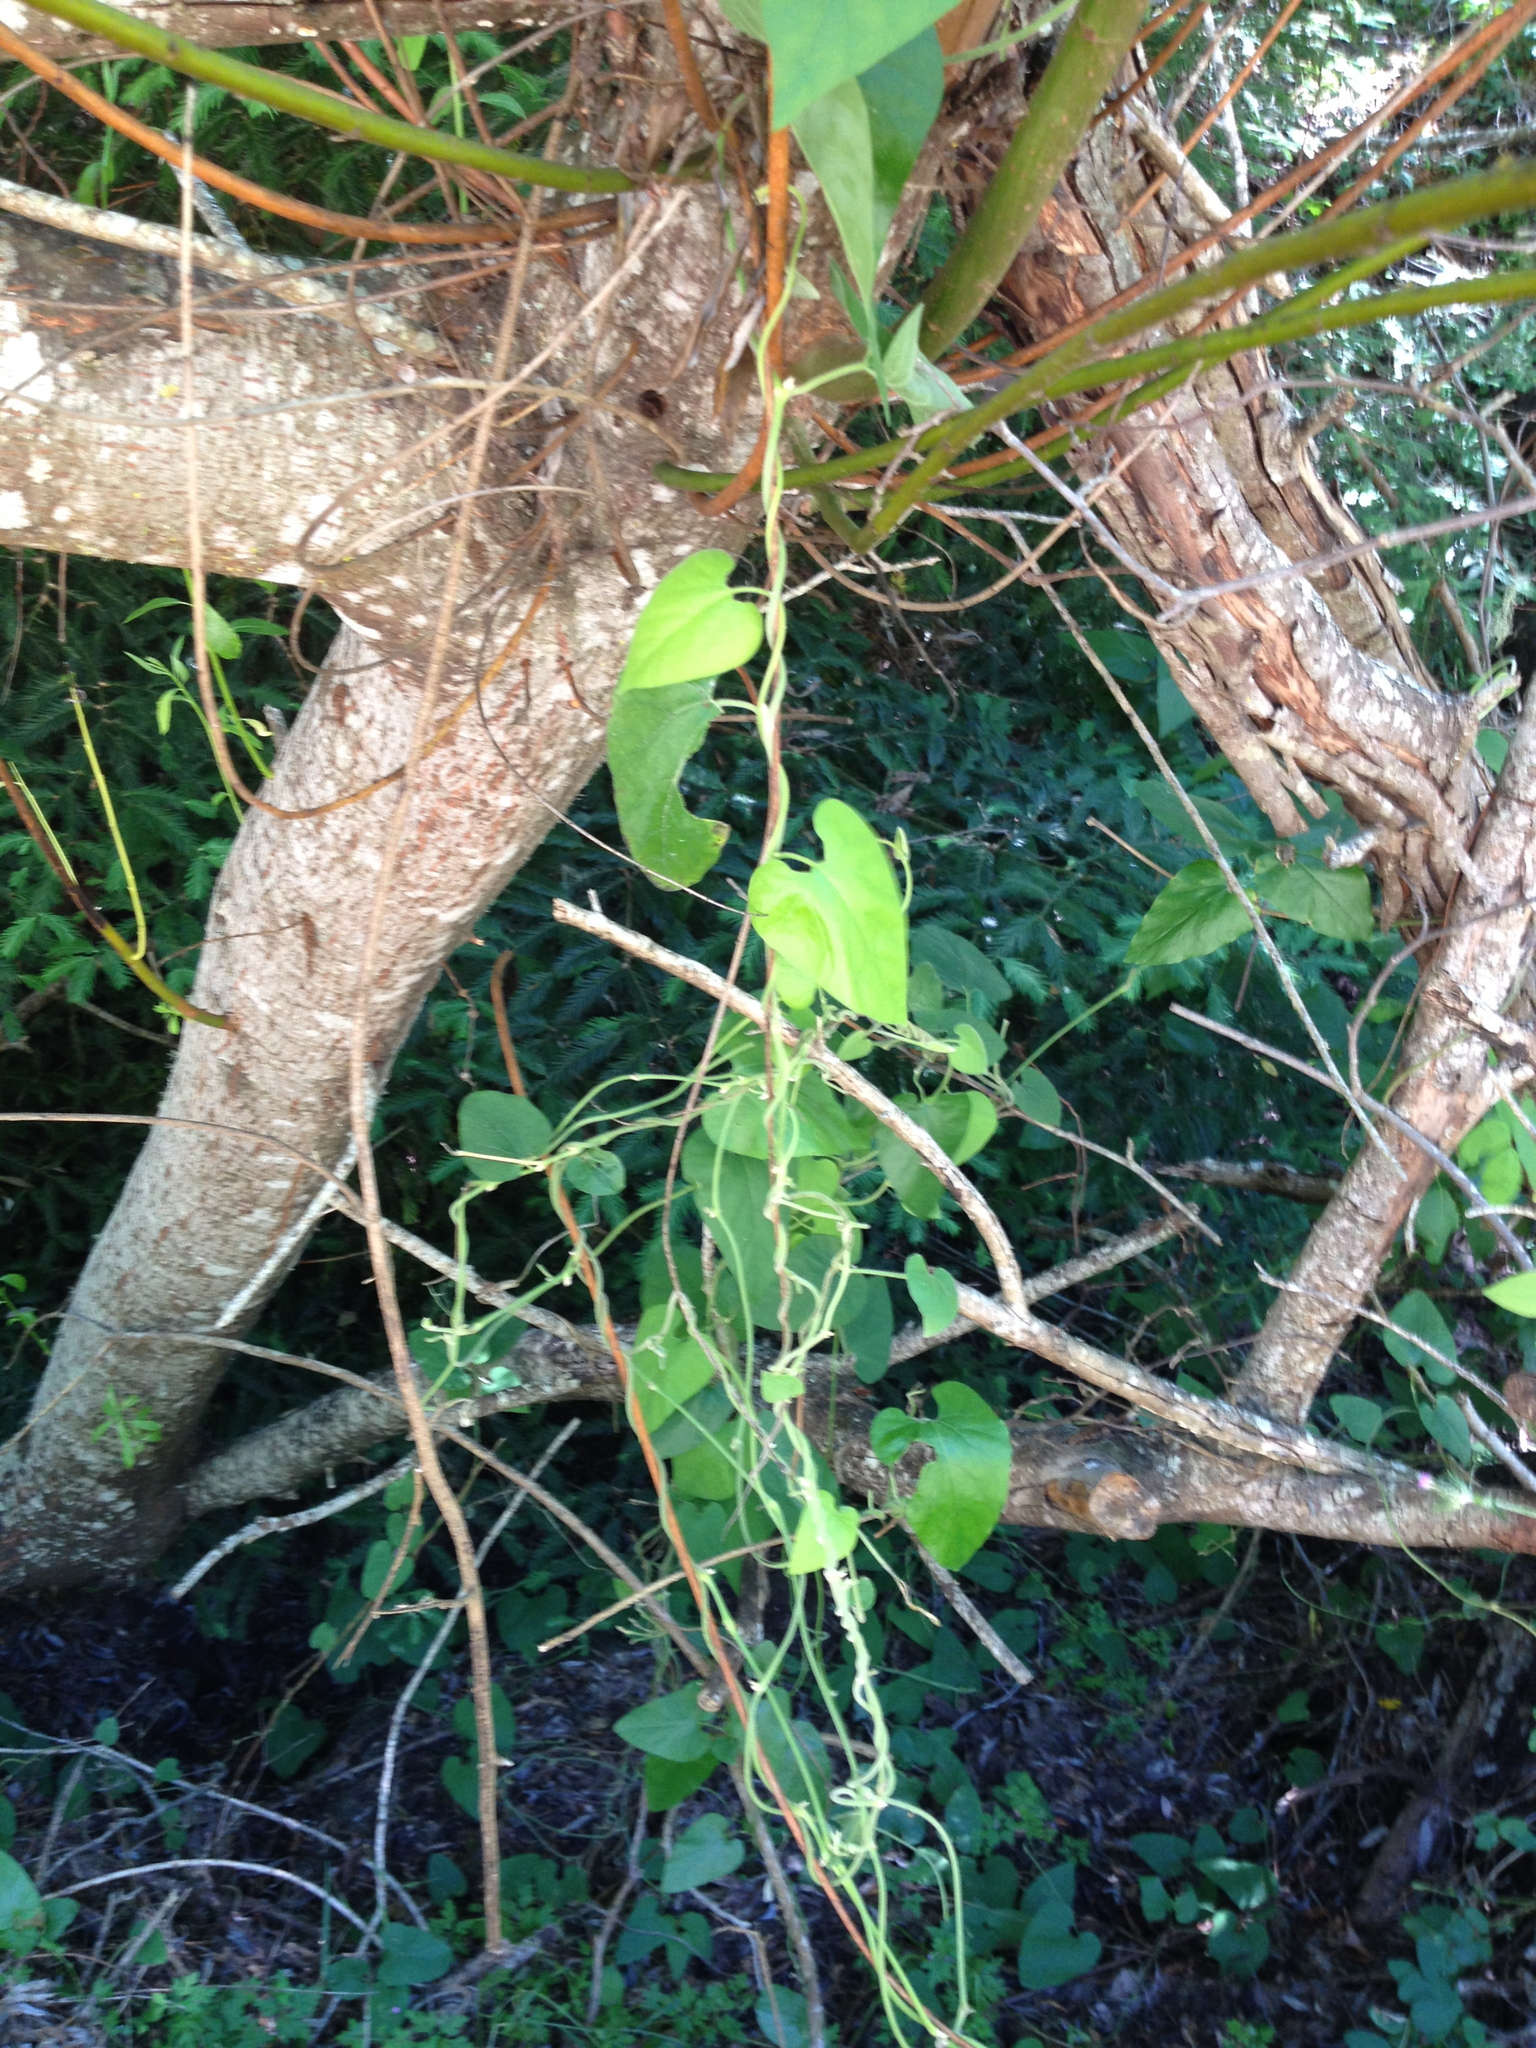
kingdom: Plantae
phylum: Tracheophyta
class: Magnoliopsida
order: Piperales
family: Aristolochiaceae
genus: Isotrema
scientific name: Isotrema californicum
